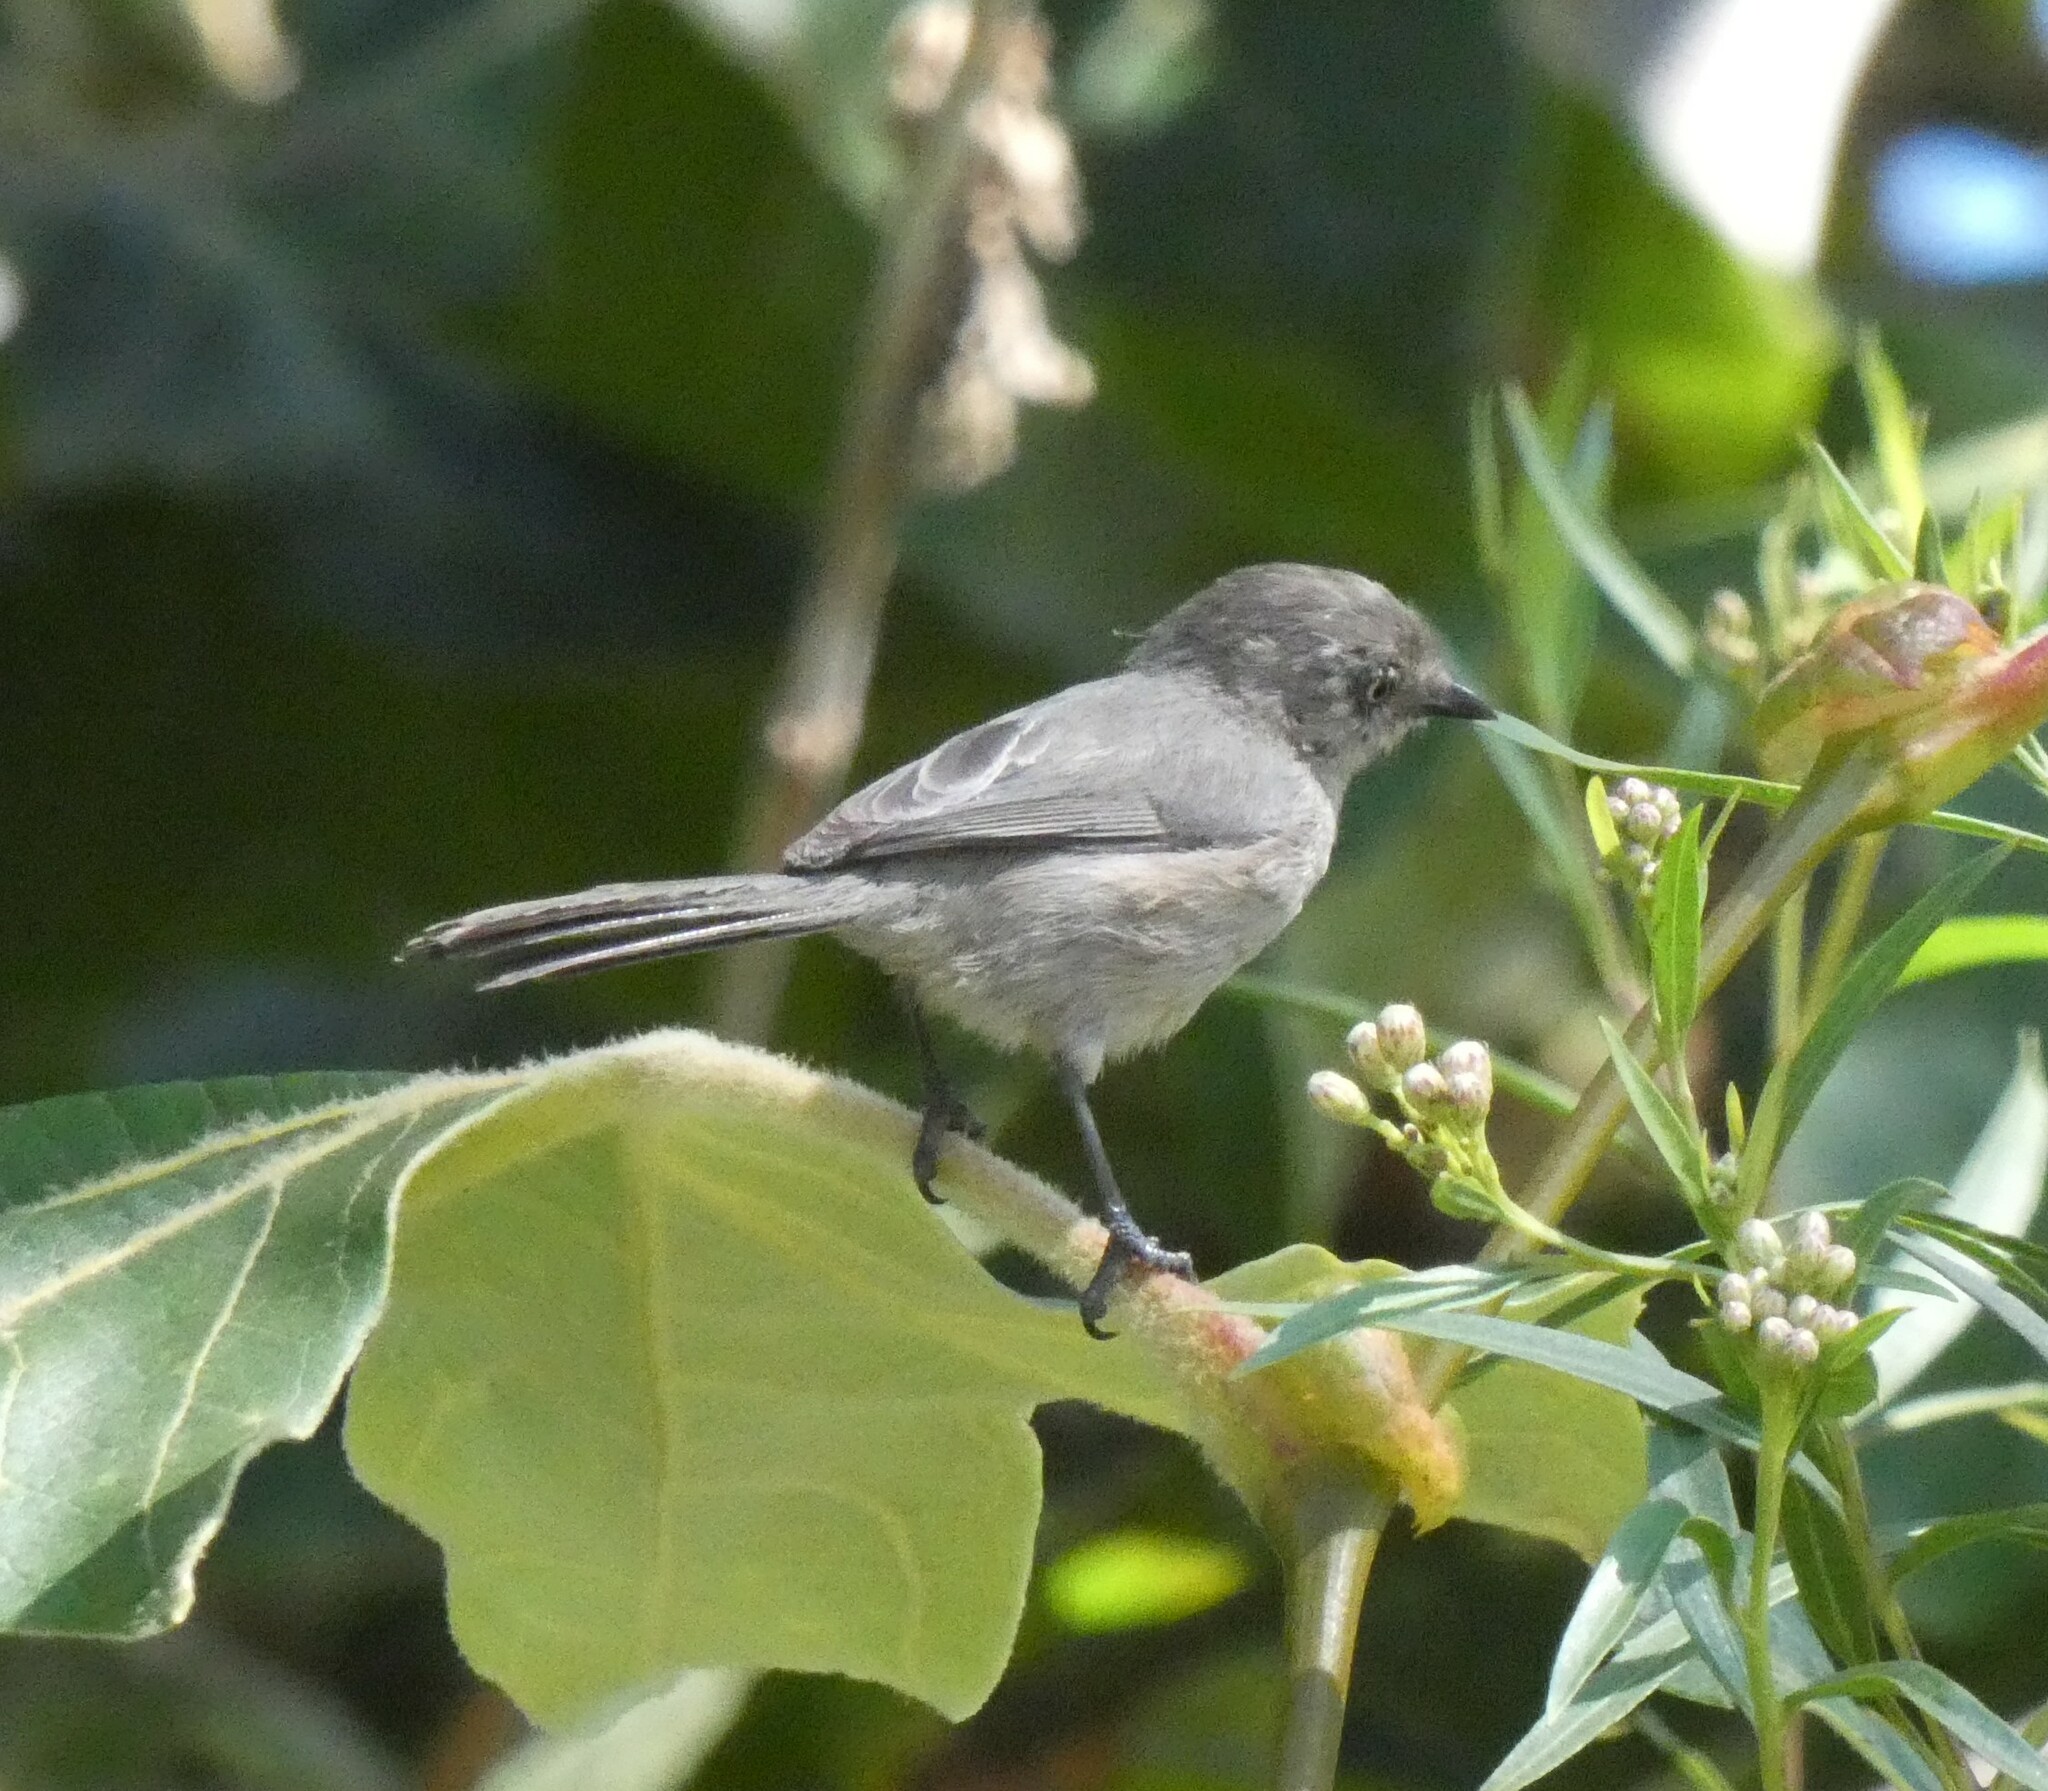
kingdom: Animalia
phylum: Chordata
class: Aves
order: Passeriformes
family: Aegithalidae
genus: Psaltriparus
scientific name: Psaltriparus minimus
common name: American bushtit
